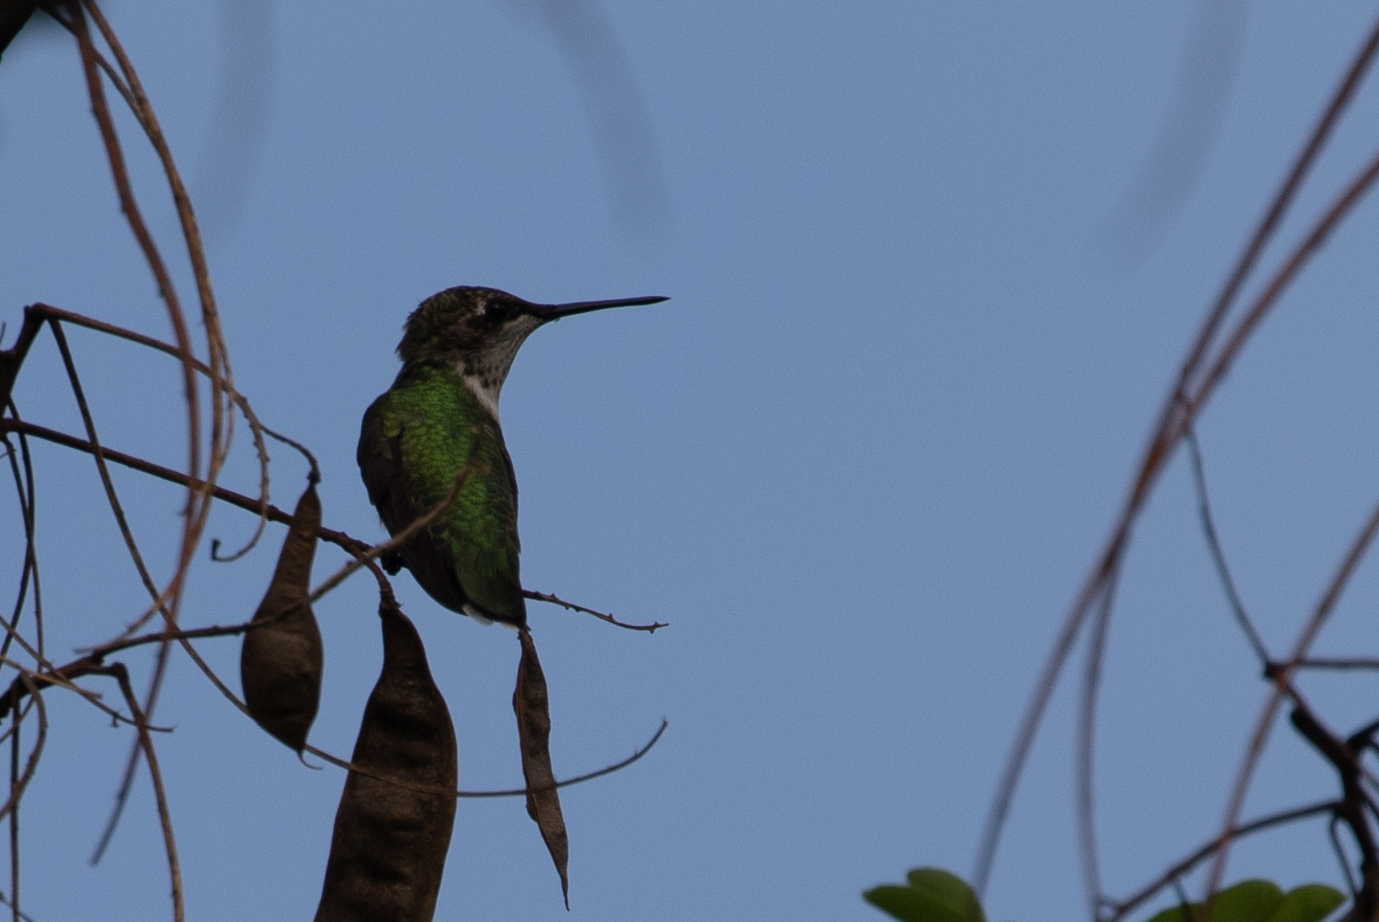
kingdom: Animalia
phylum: Chordata
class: Aves
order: Apodiformes
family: Trochilidae
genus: Archilochus
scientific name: Archilochus colubris
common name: Ruby-throated hummingbird
